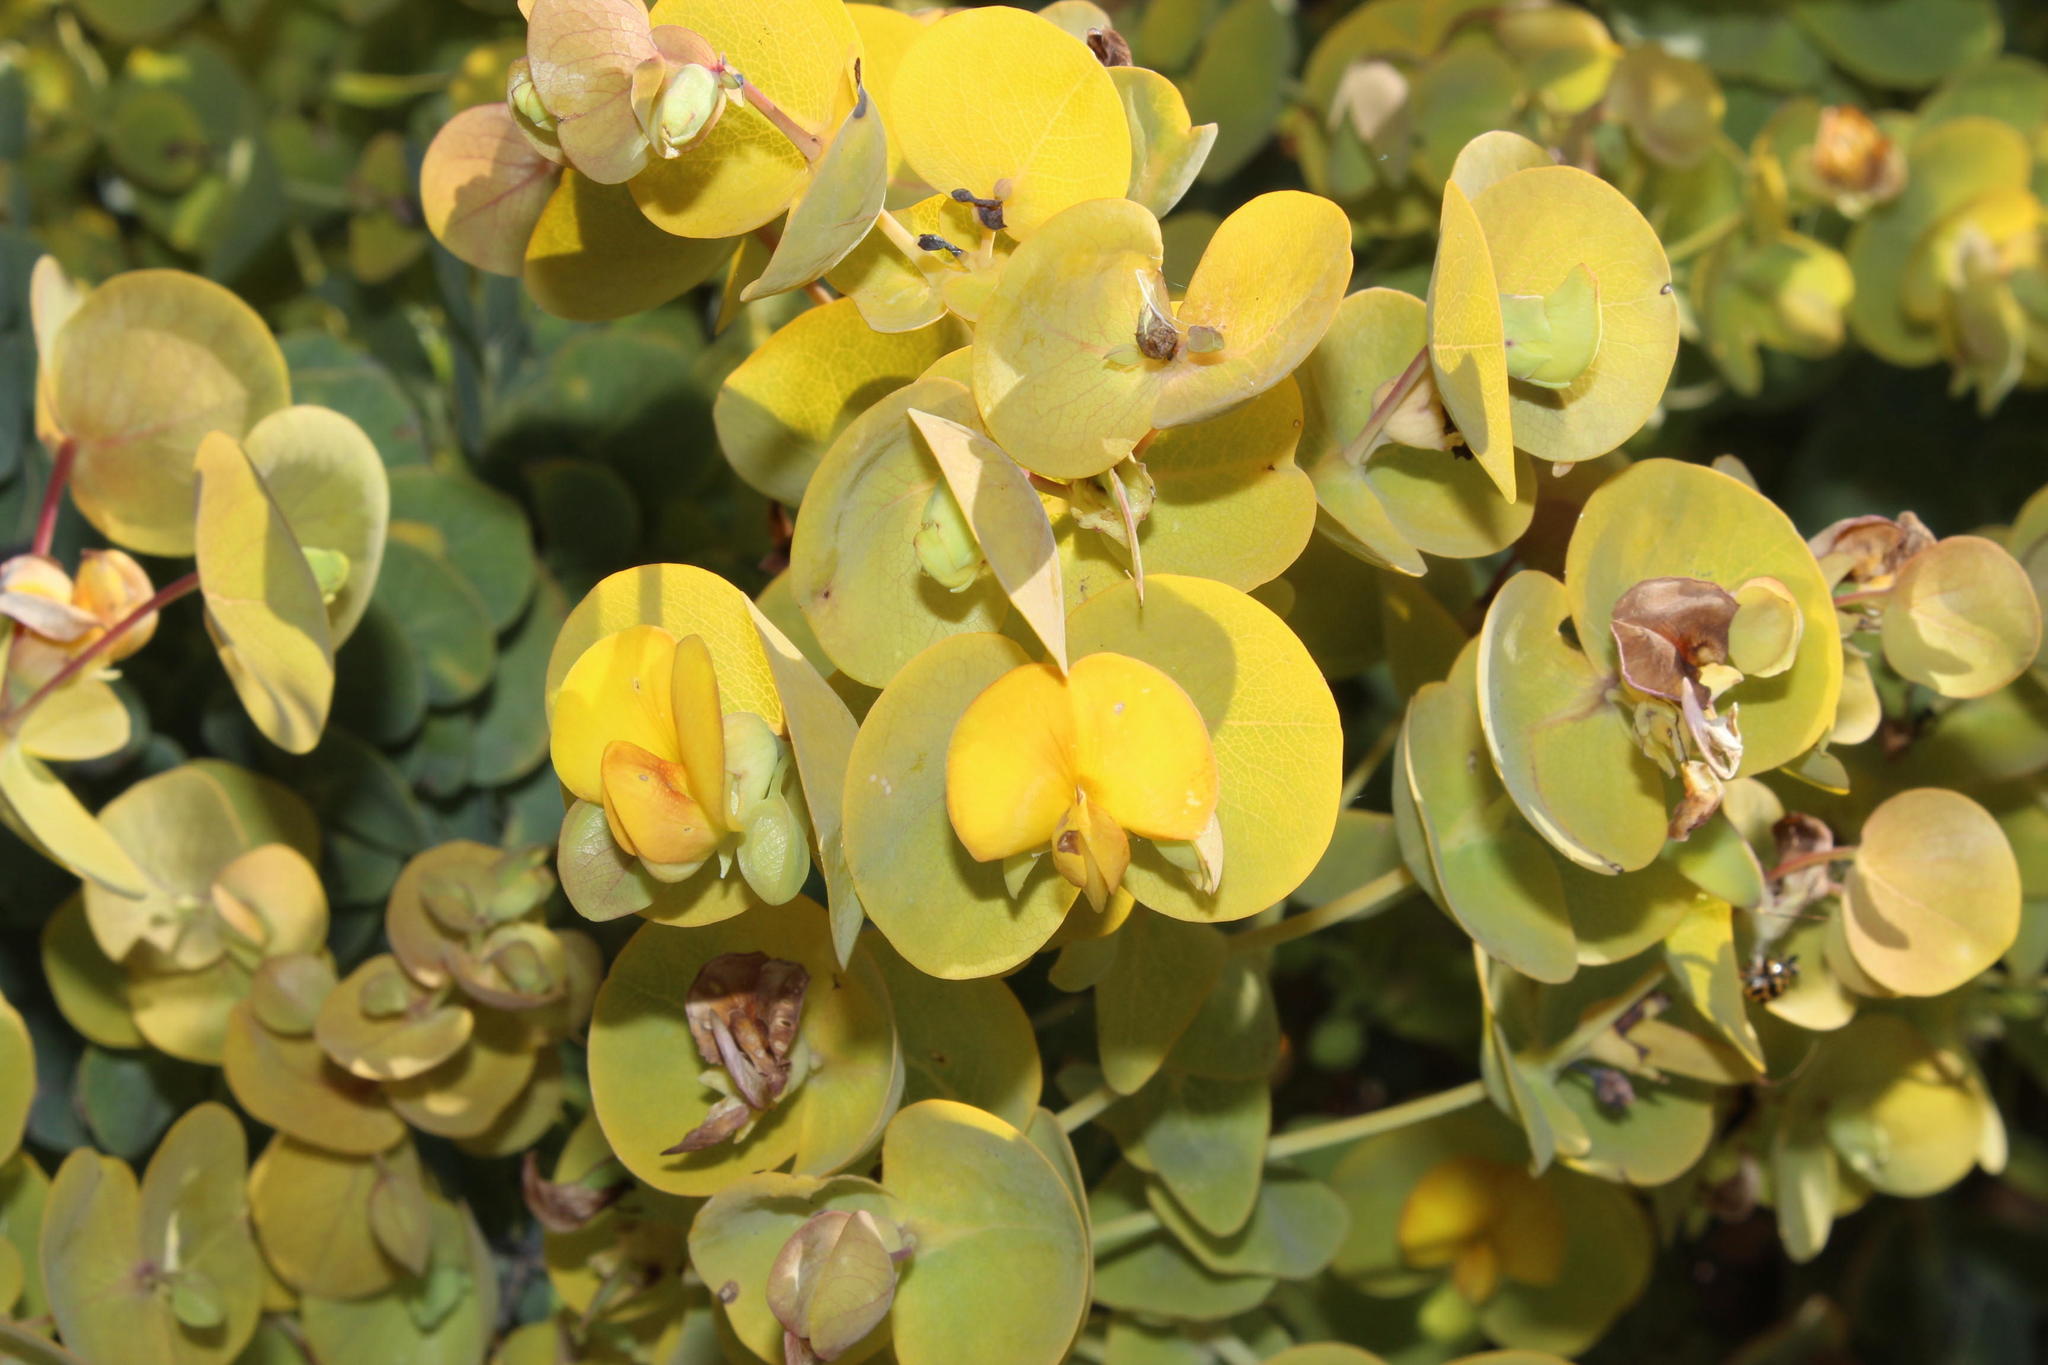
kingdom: Plantae
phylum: Tracheophyta
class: Magnoliopsida
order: Fabales
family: Fabaceae
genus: Rafnia
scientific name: Rafnia amplexicaulis
